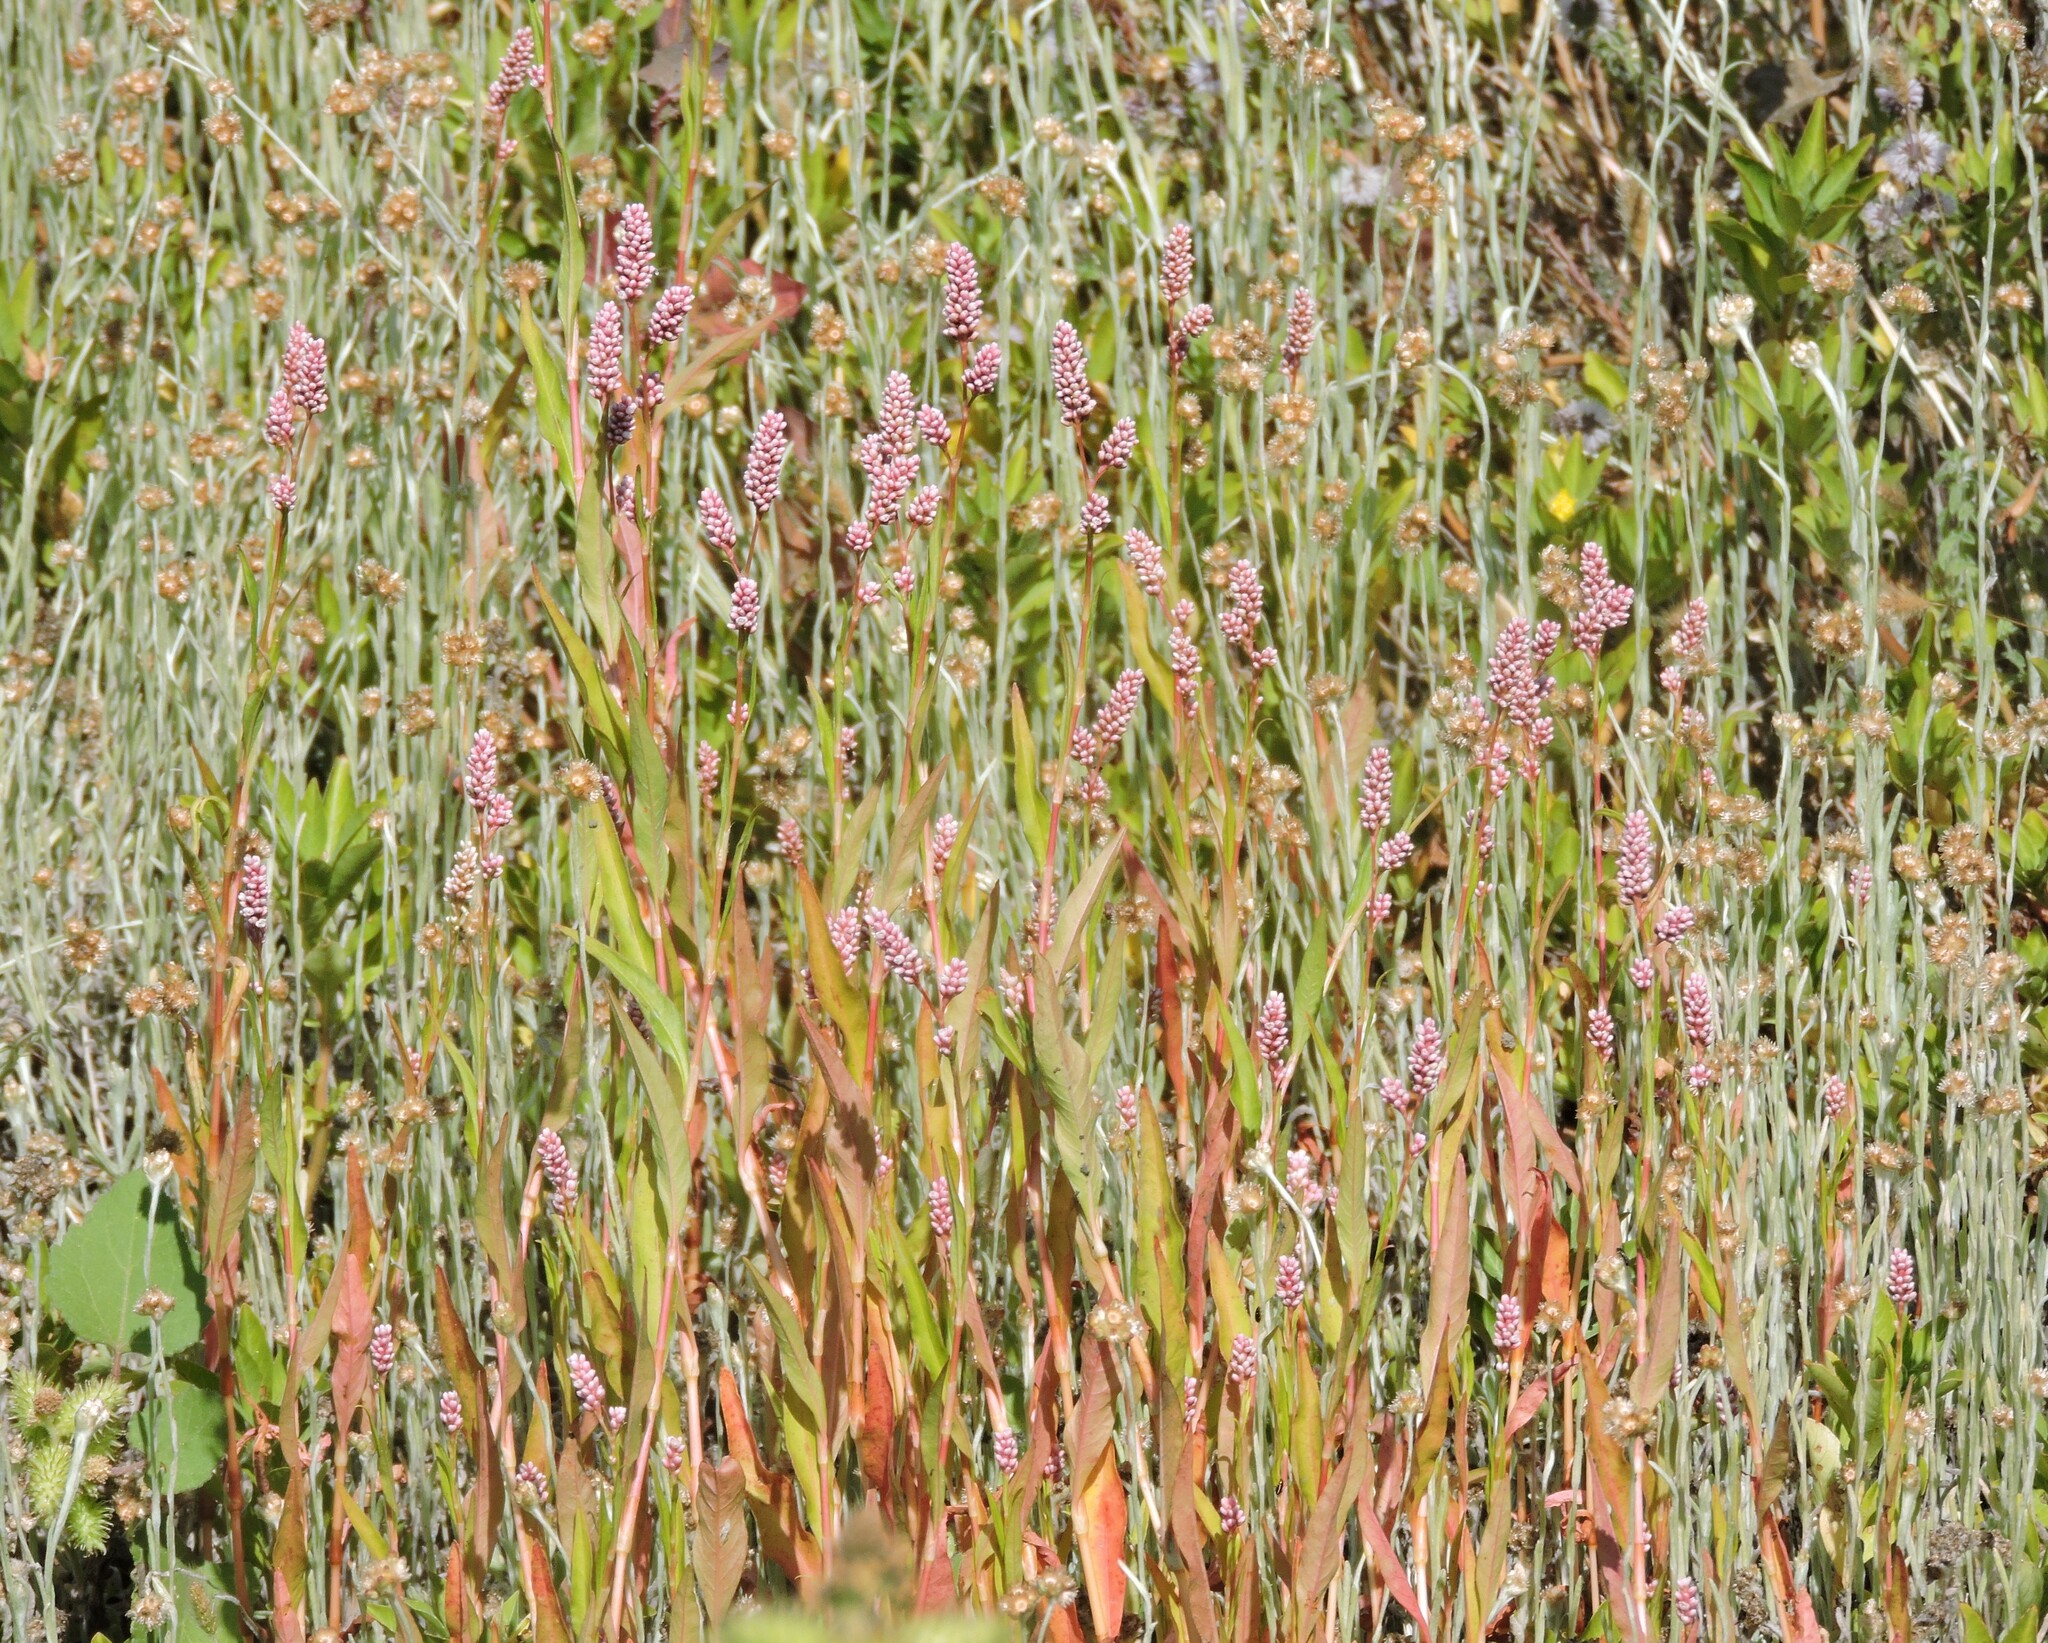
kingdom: Plantae
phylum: Tracheophyta
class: Magnoliopsida
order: Caryophyllales
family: Polygonaceae
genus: Persicaria
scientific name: Persicaria maculosa
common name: Redshank
